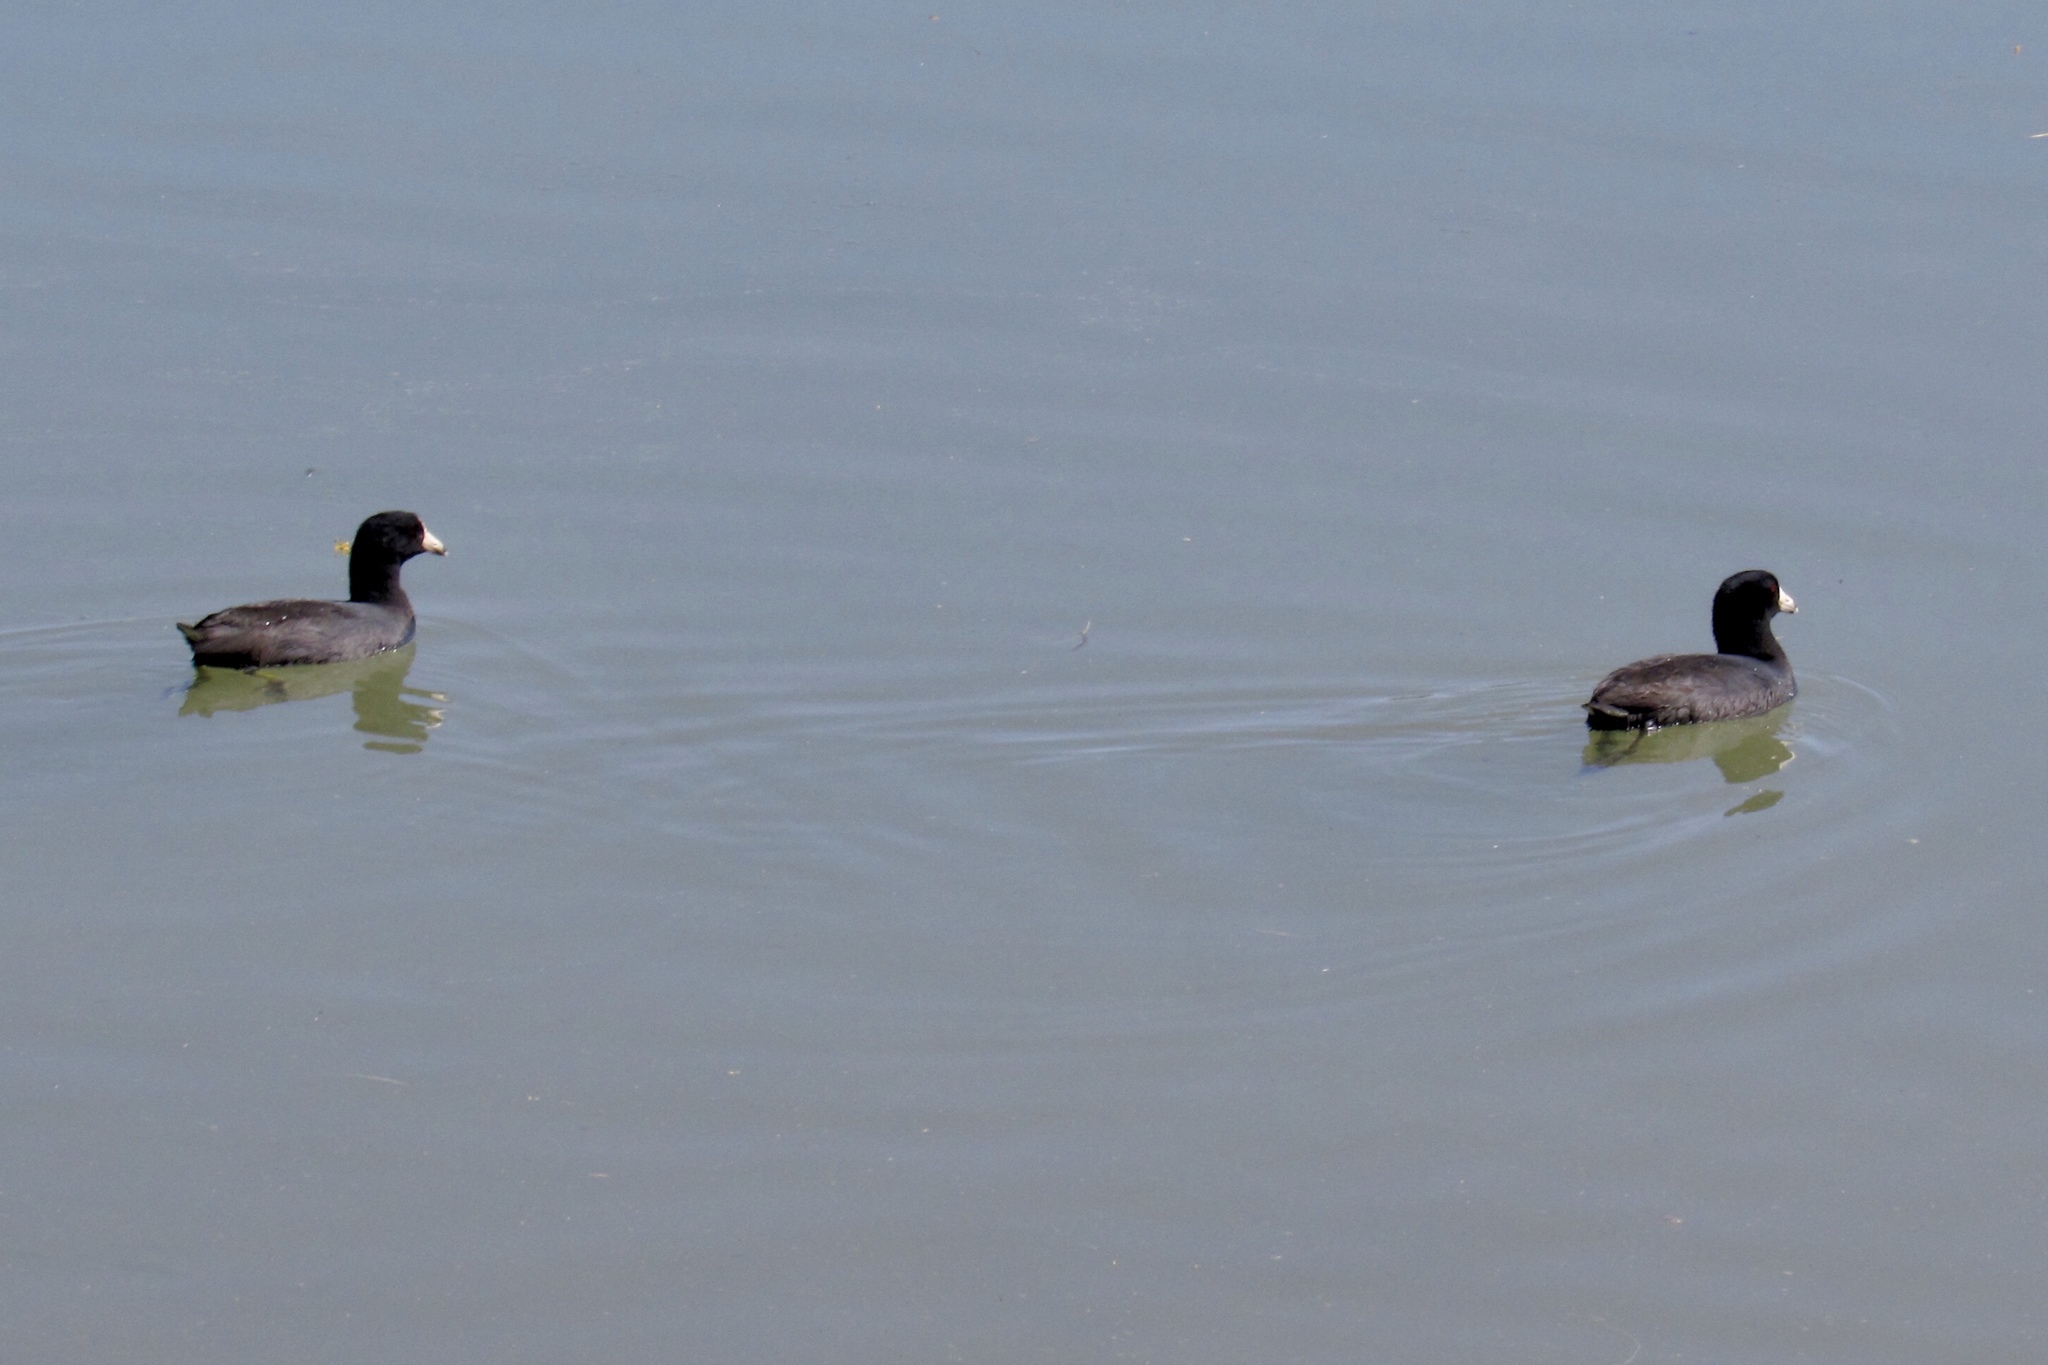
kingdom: Animalia
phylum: Chordata
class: Aves
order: Gruiformes
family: Rallidae
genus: Fulica
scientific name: Fulica americana
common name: American coot
